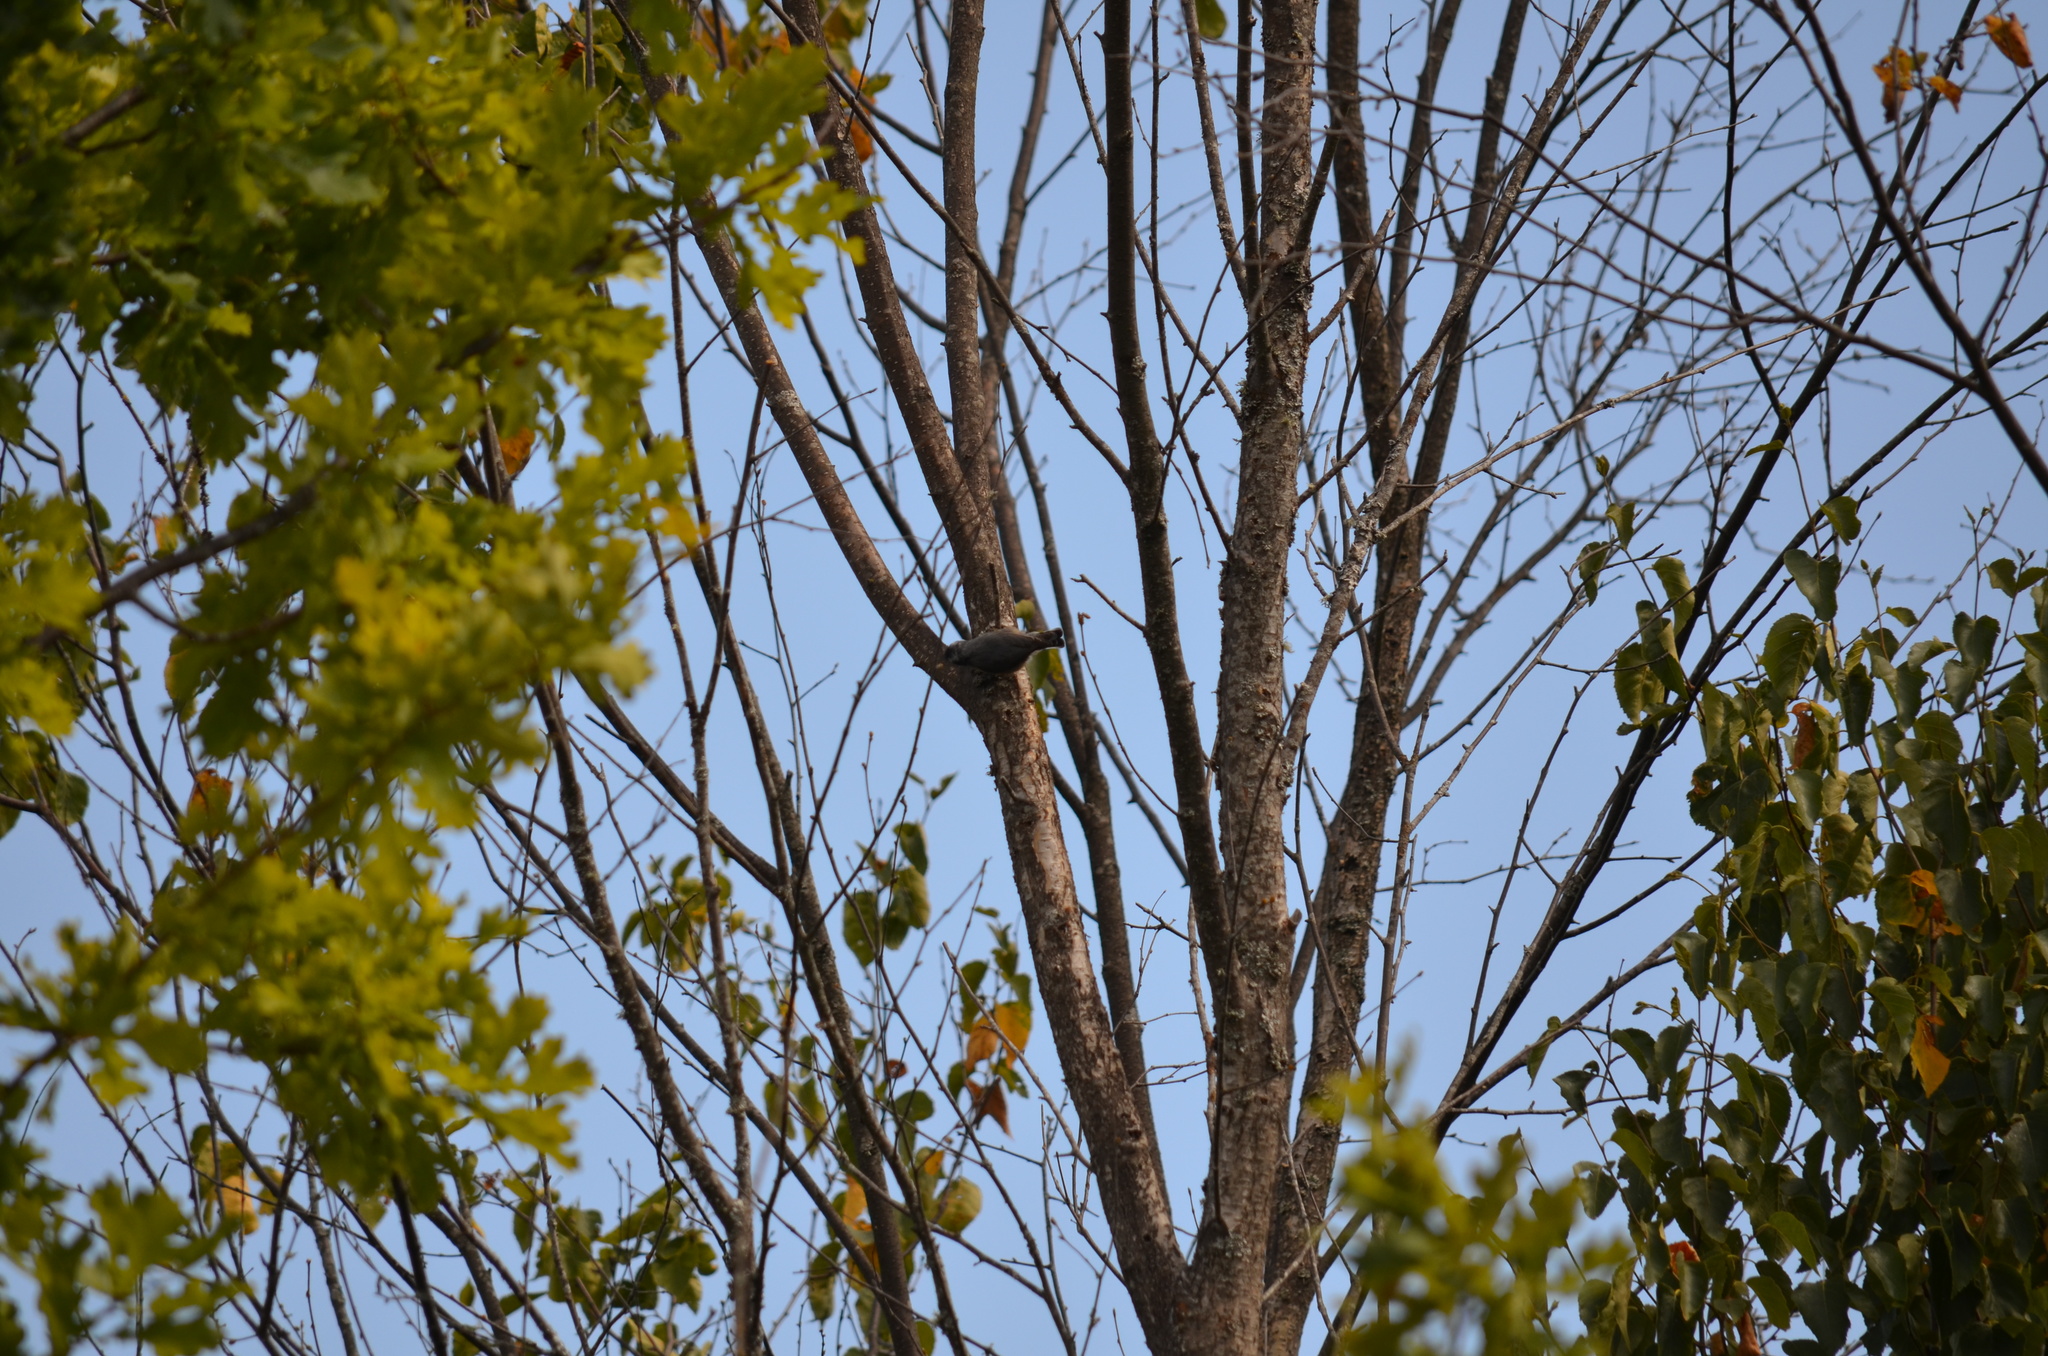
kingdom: Animalia
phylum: Chordata
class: Aves
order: Passeriformes
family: Sittidae
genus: Sitta
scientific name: Sitta canadensis
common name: Red-breasted nuthatch
